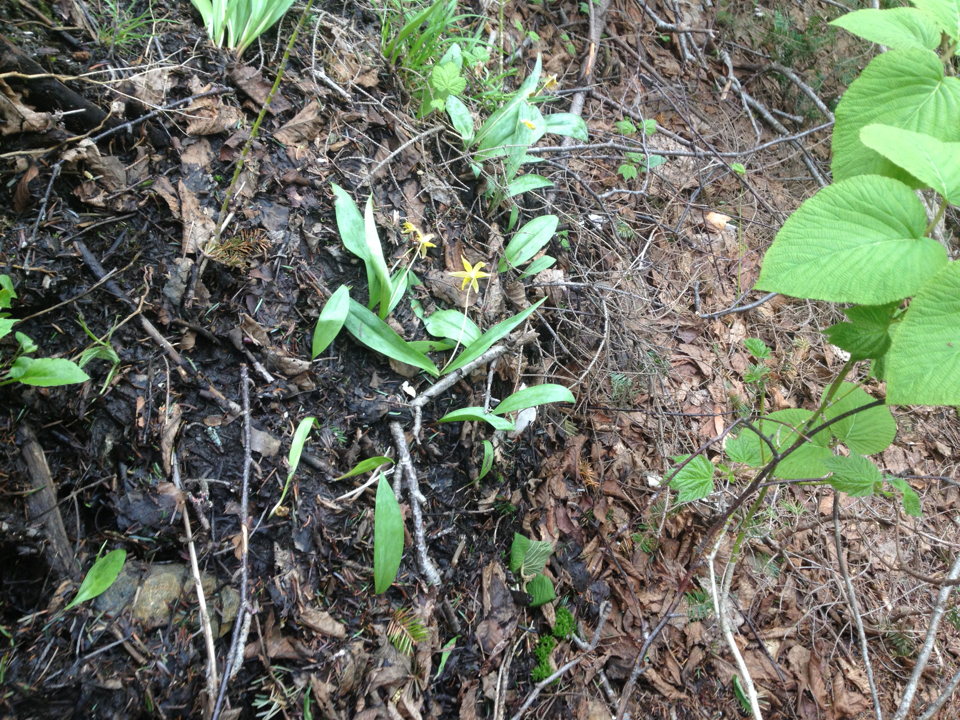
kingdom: Plantae
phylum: Tracheophyta
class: Liliopsida
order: Liliales
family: Liliaceae
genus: Erythronium
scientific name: Erythronium americanum
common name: Yellow adder's-tongue
